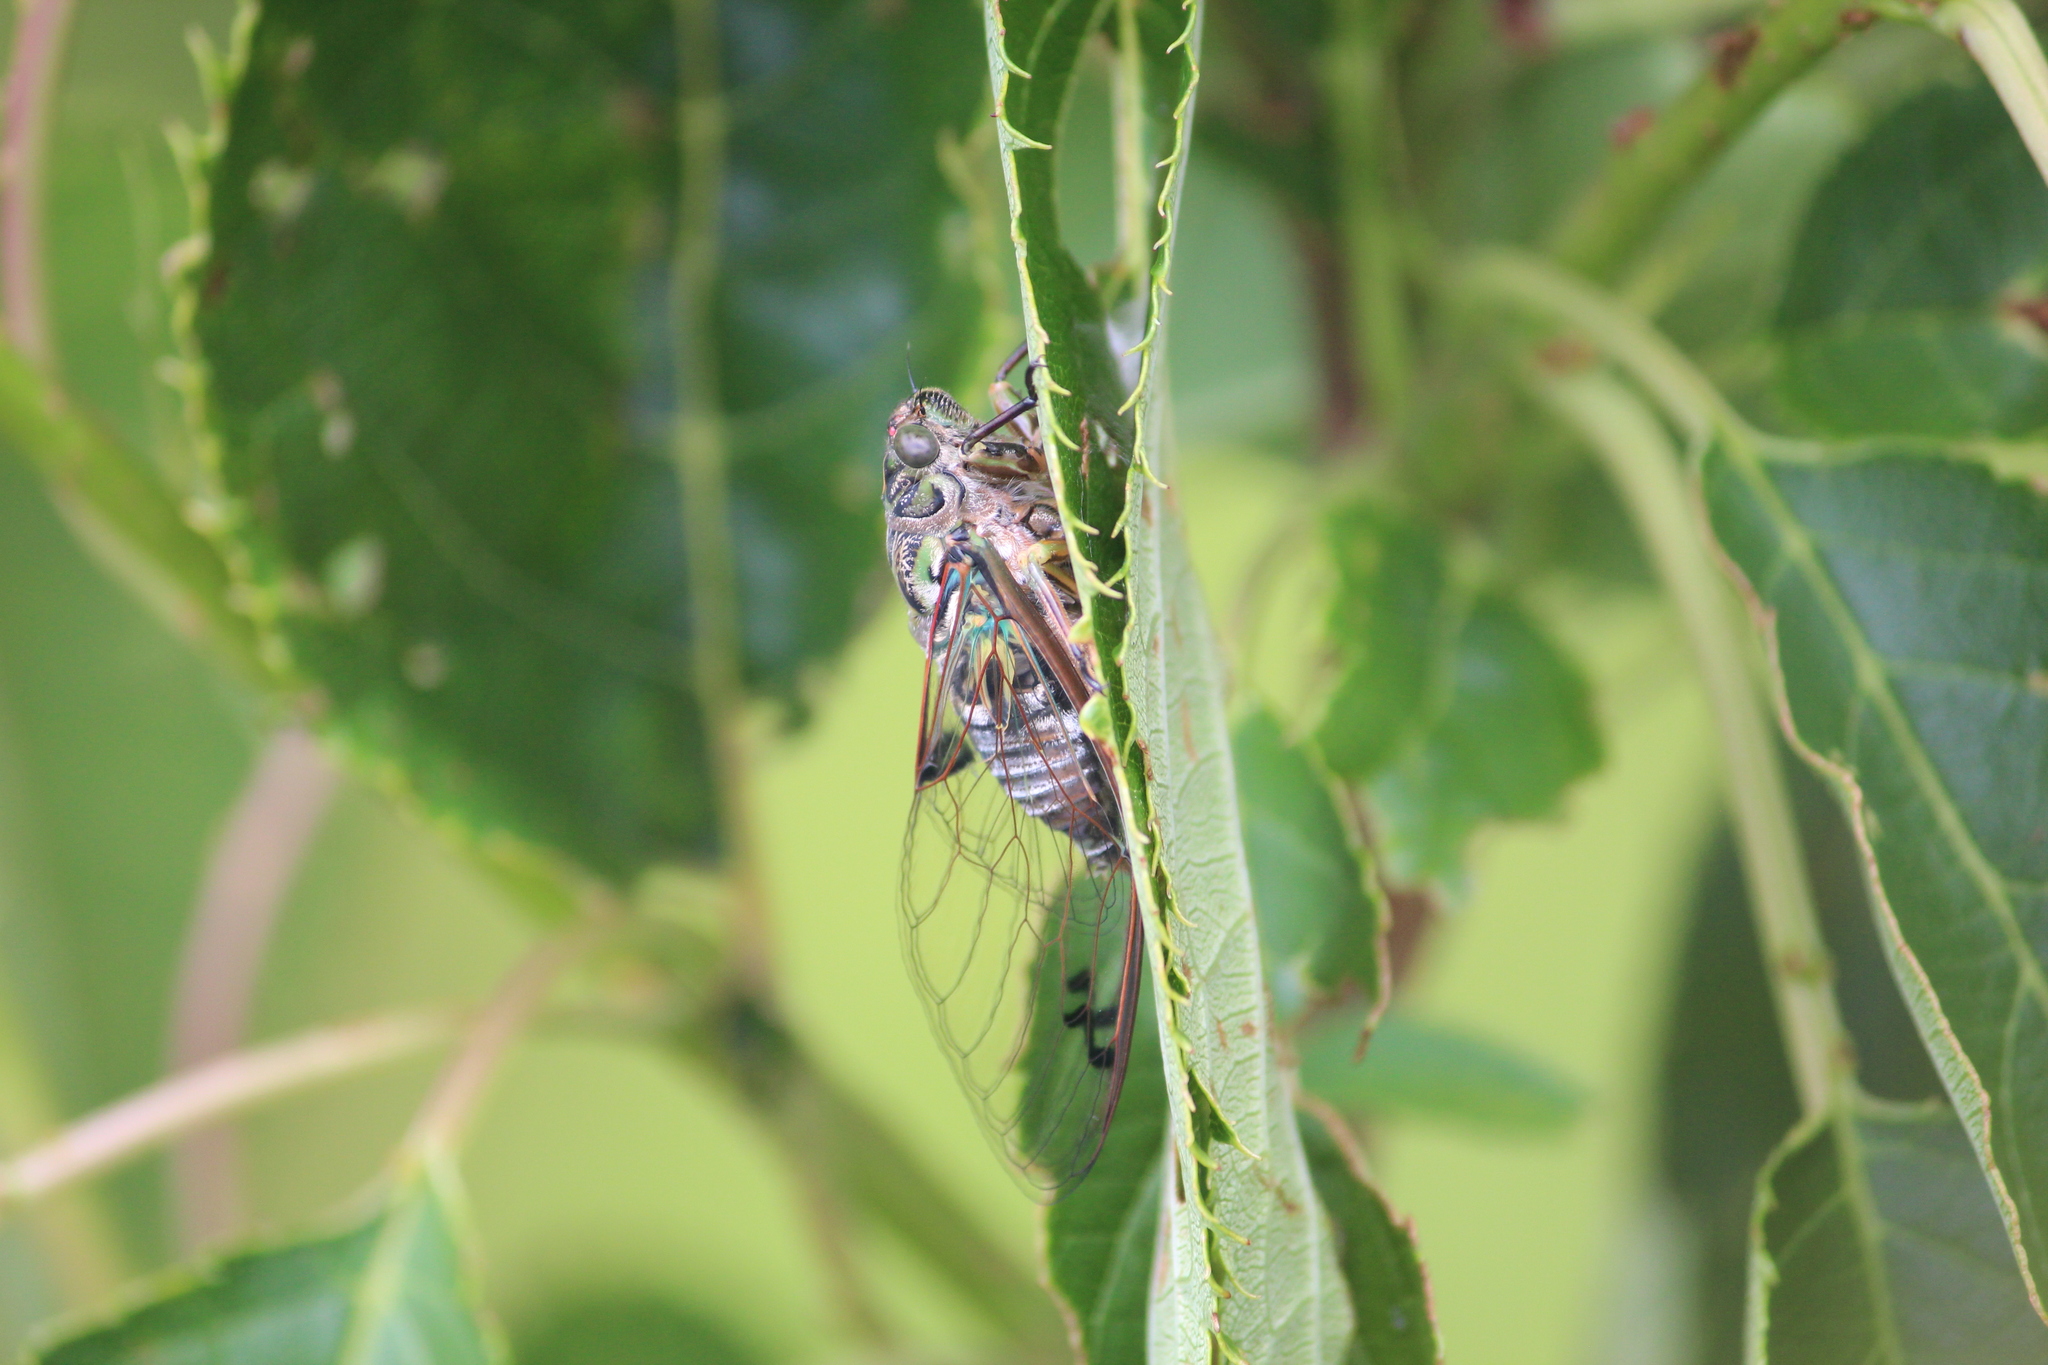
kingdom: Animalia
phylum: Arthropoda
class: Insecta
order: Hemiptera
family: Cicadidae
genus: Amphipsalta
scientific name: Amphipsalta zelandica
